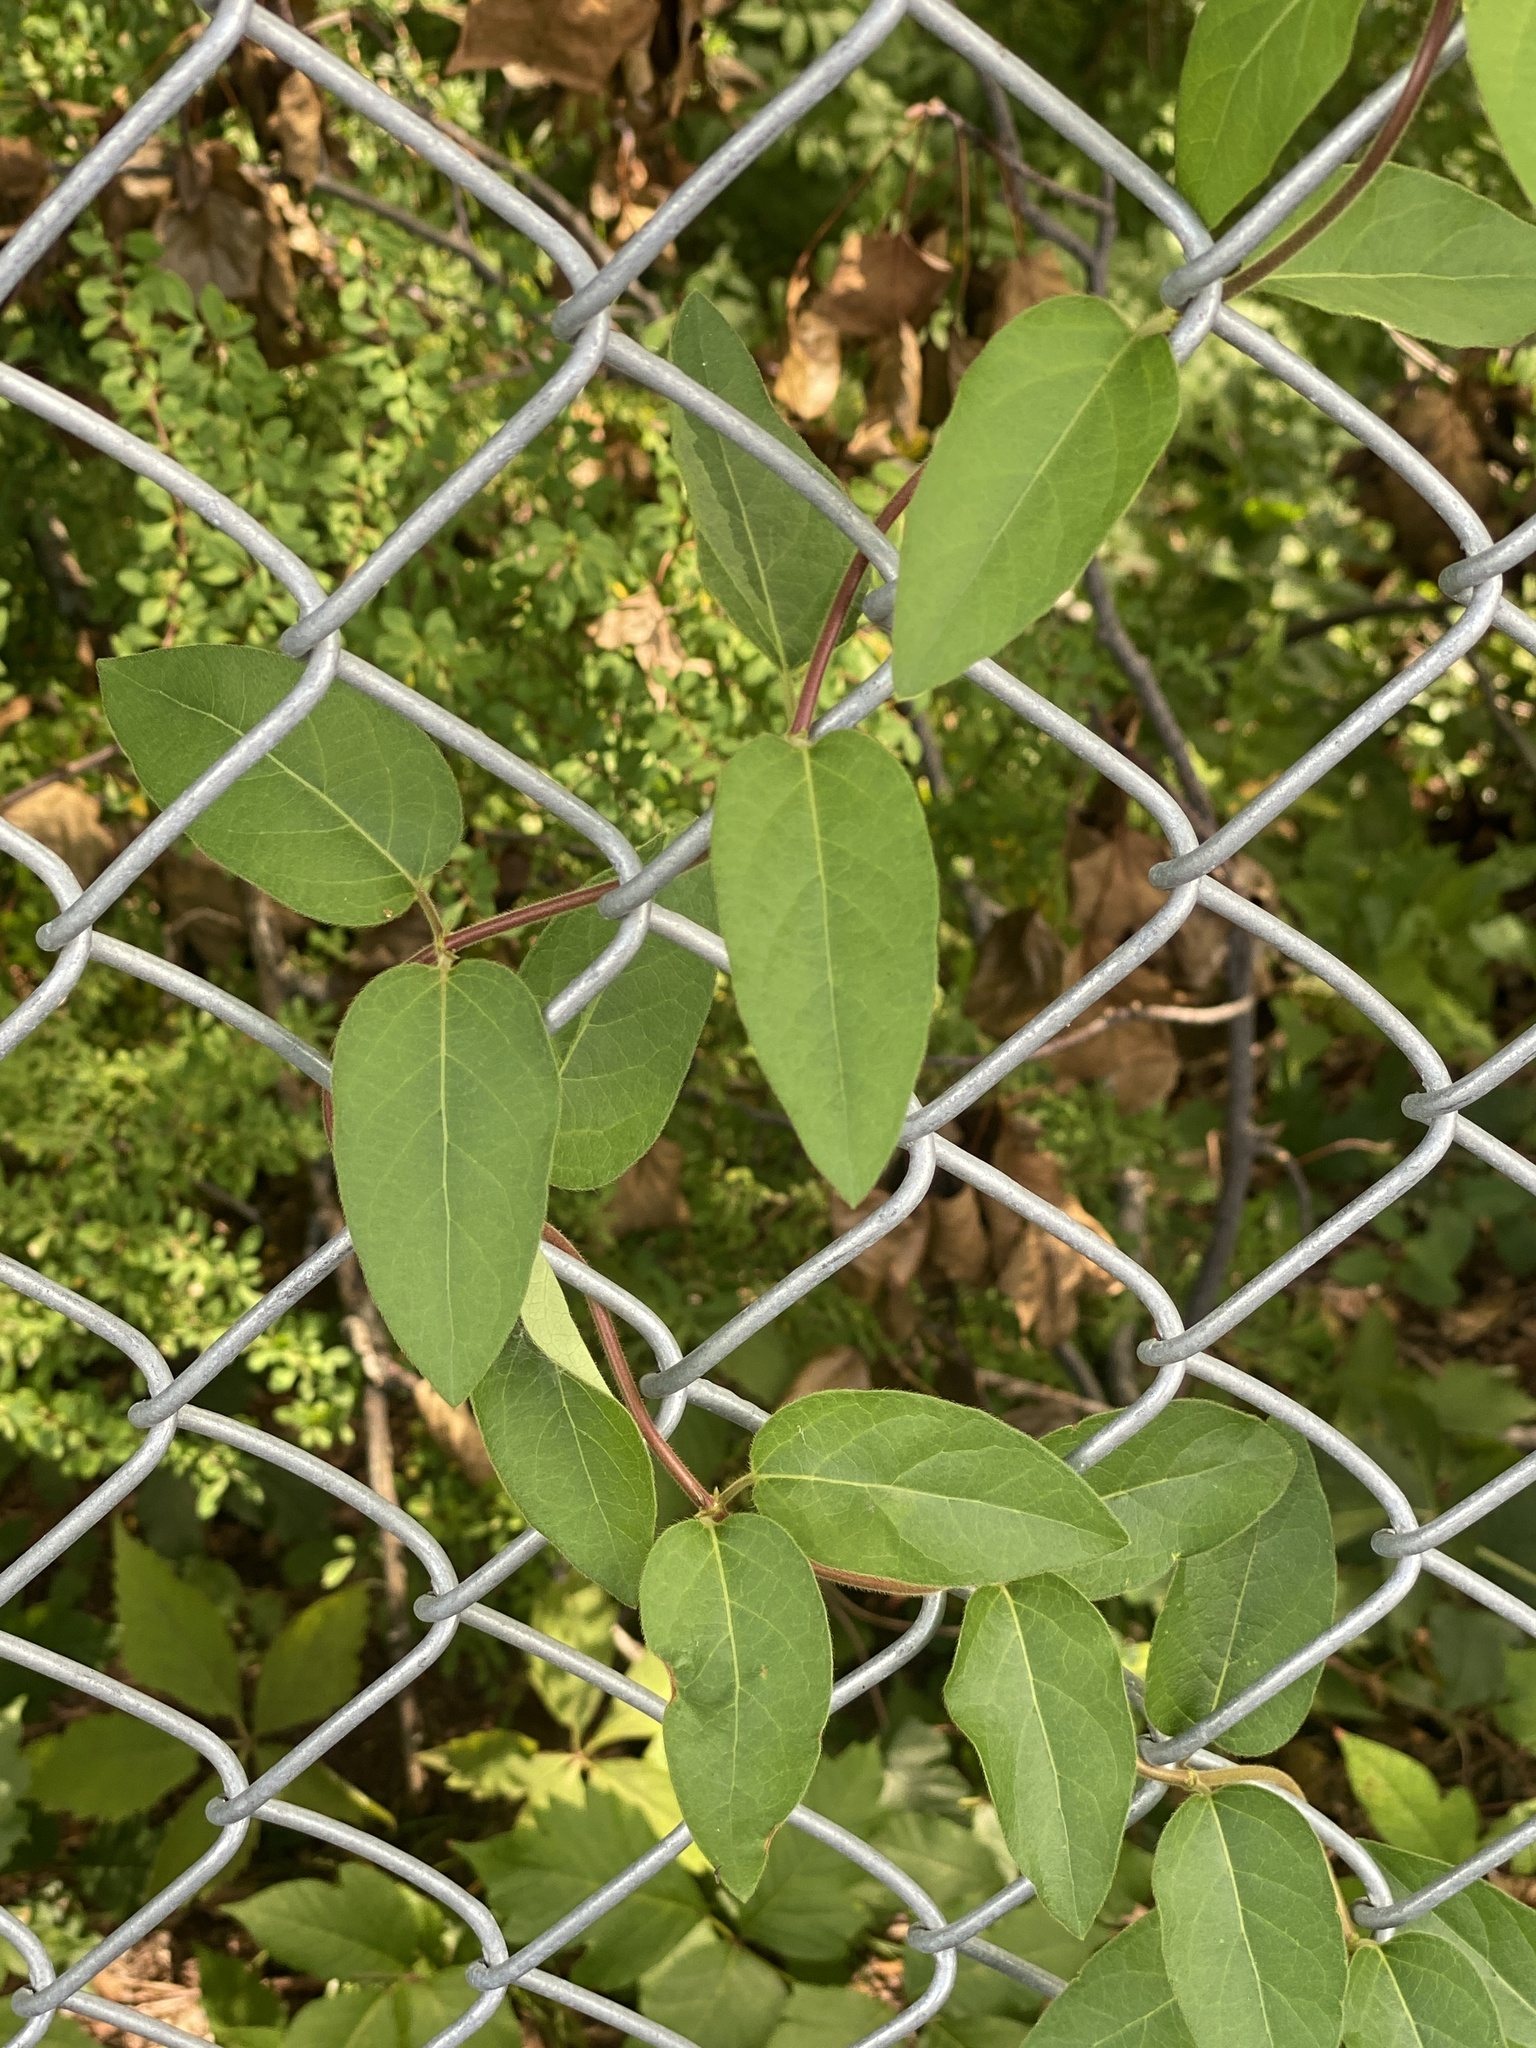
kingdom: Plantae
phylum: Tracheophyta
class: Magnoliopsida
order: Dipsacales
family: Caprifoliaceae
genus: Lonicera
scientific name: Lonicera japonica
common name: Japanese honeysuckle
